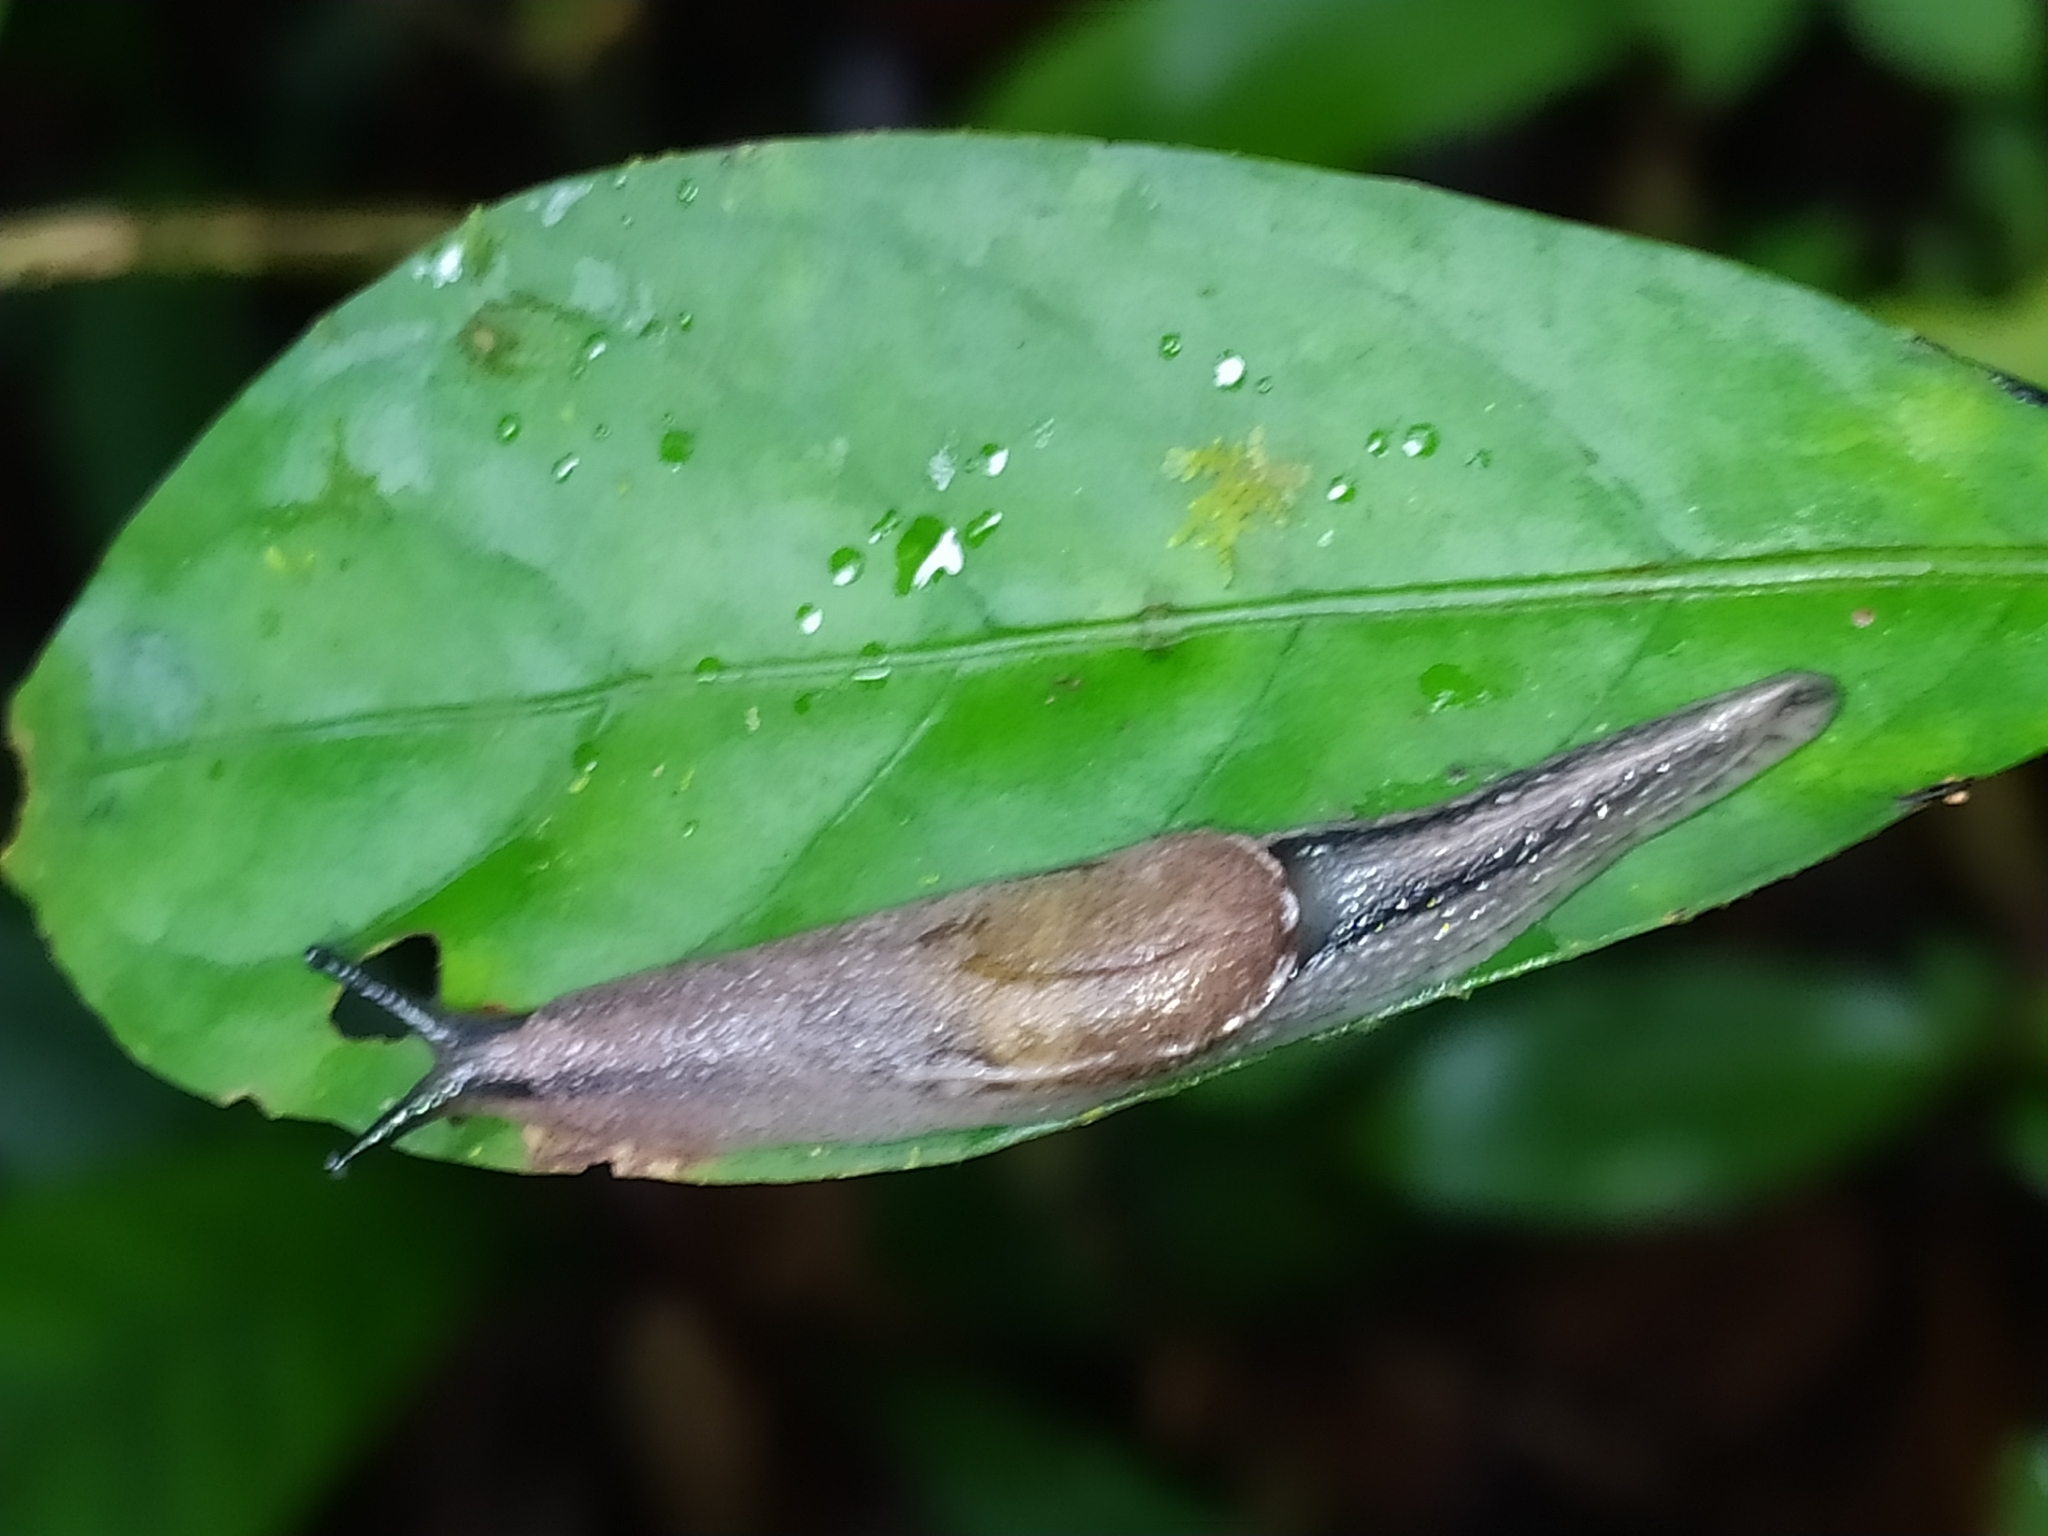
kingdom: Animalia
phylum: Mollusca
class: Gastropoda
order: Stylommatophora
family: Ariophantidae
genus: Parmarion
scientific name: Parmarion martensi
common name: Semi-slug
